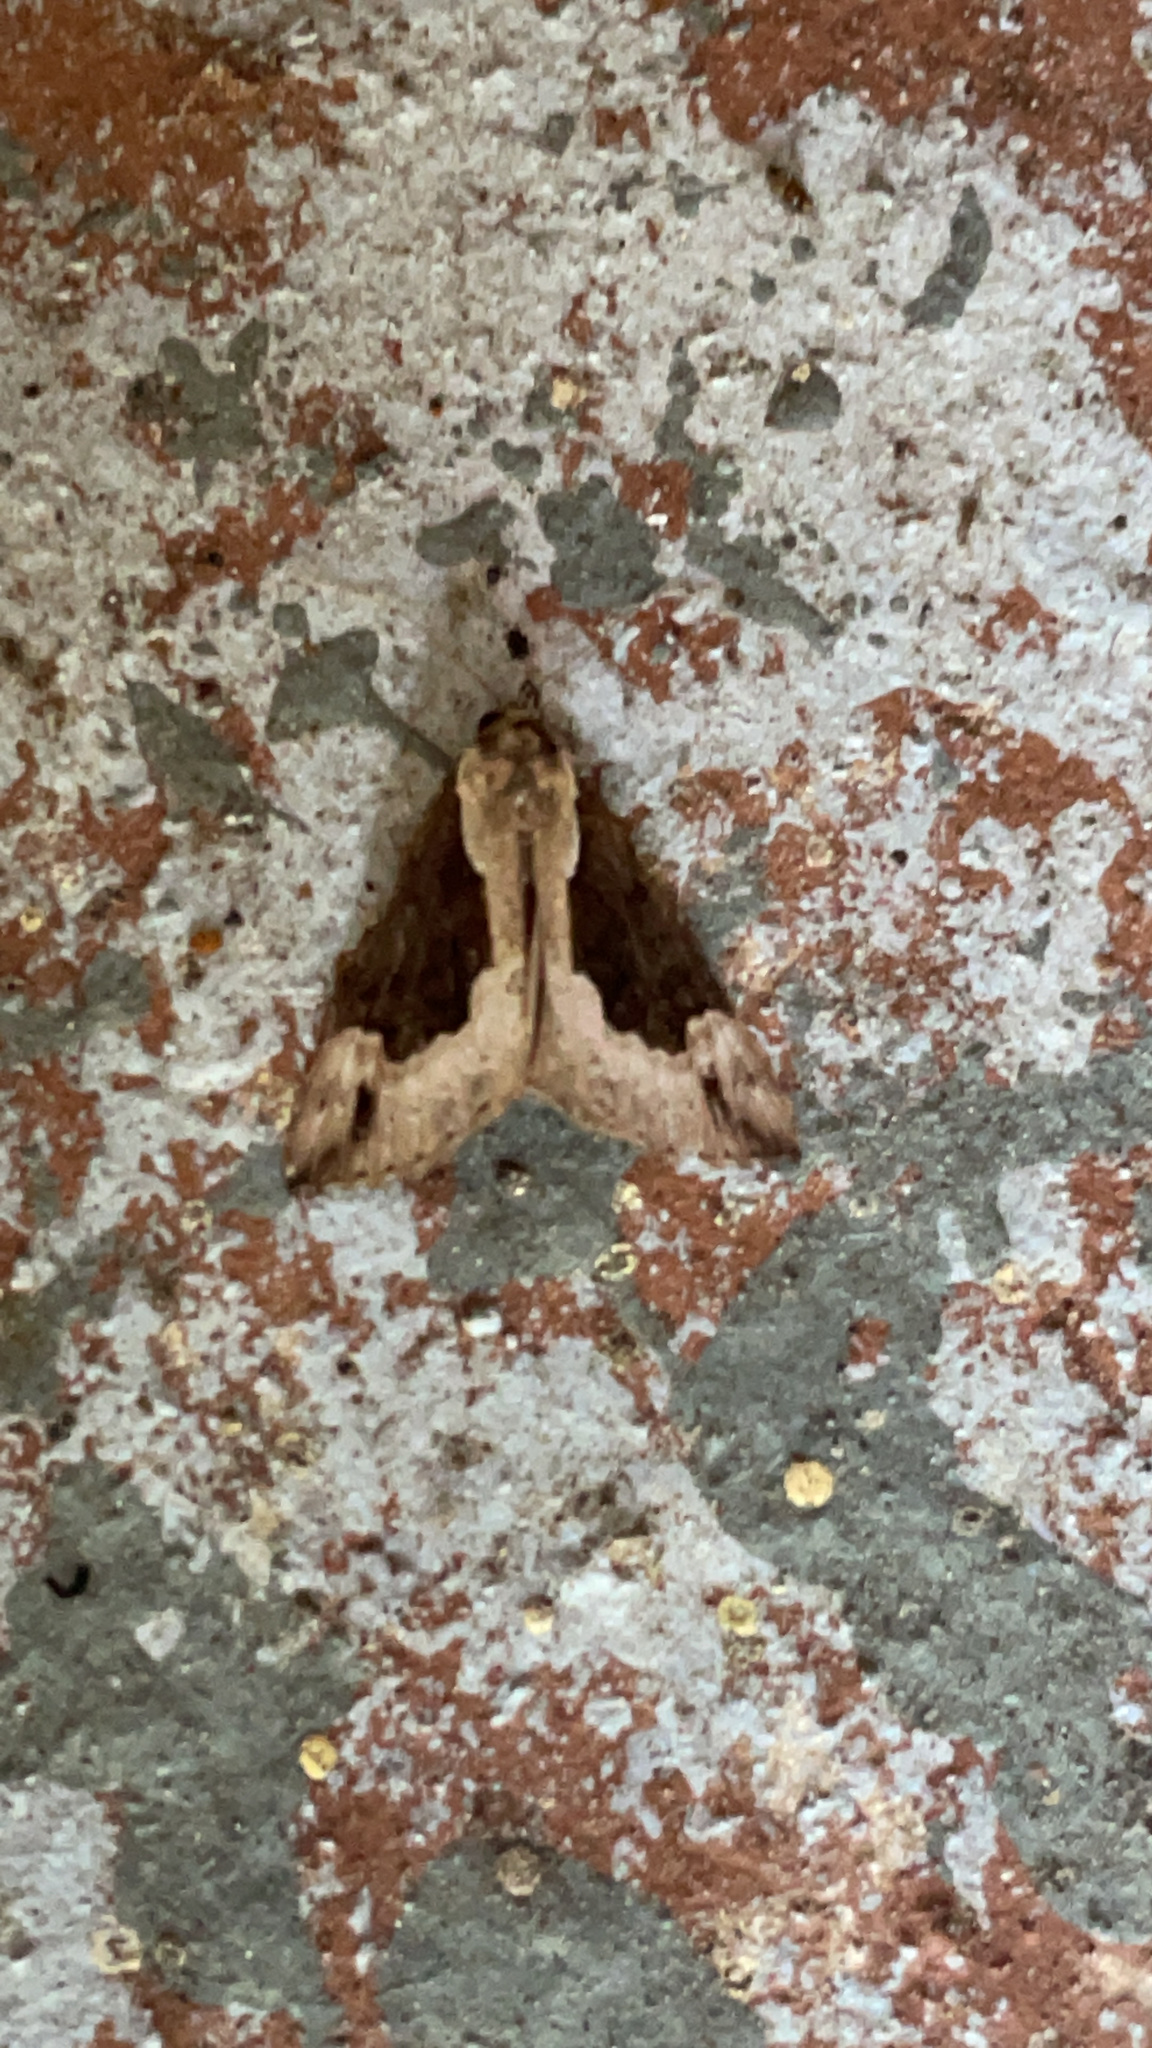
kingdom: Animalia
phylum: Arthropoda
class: Insecta
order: Lepidoptera
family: Erebidae
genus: Hypena
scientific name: Hypena baltimoralis
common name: Baltimore snout
